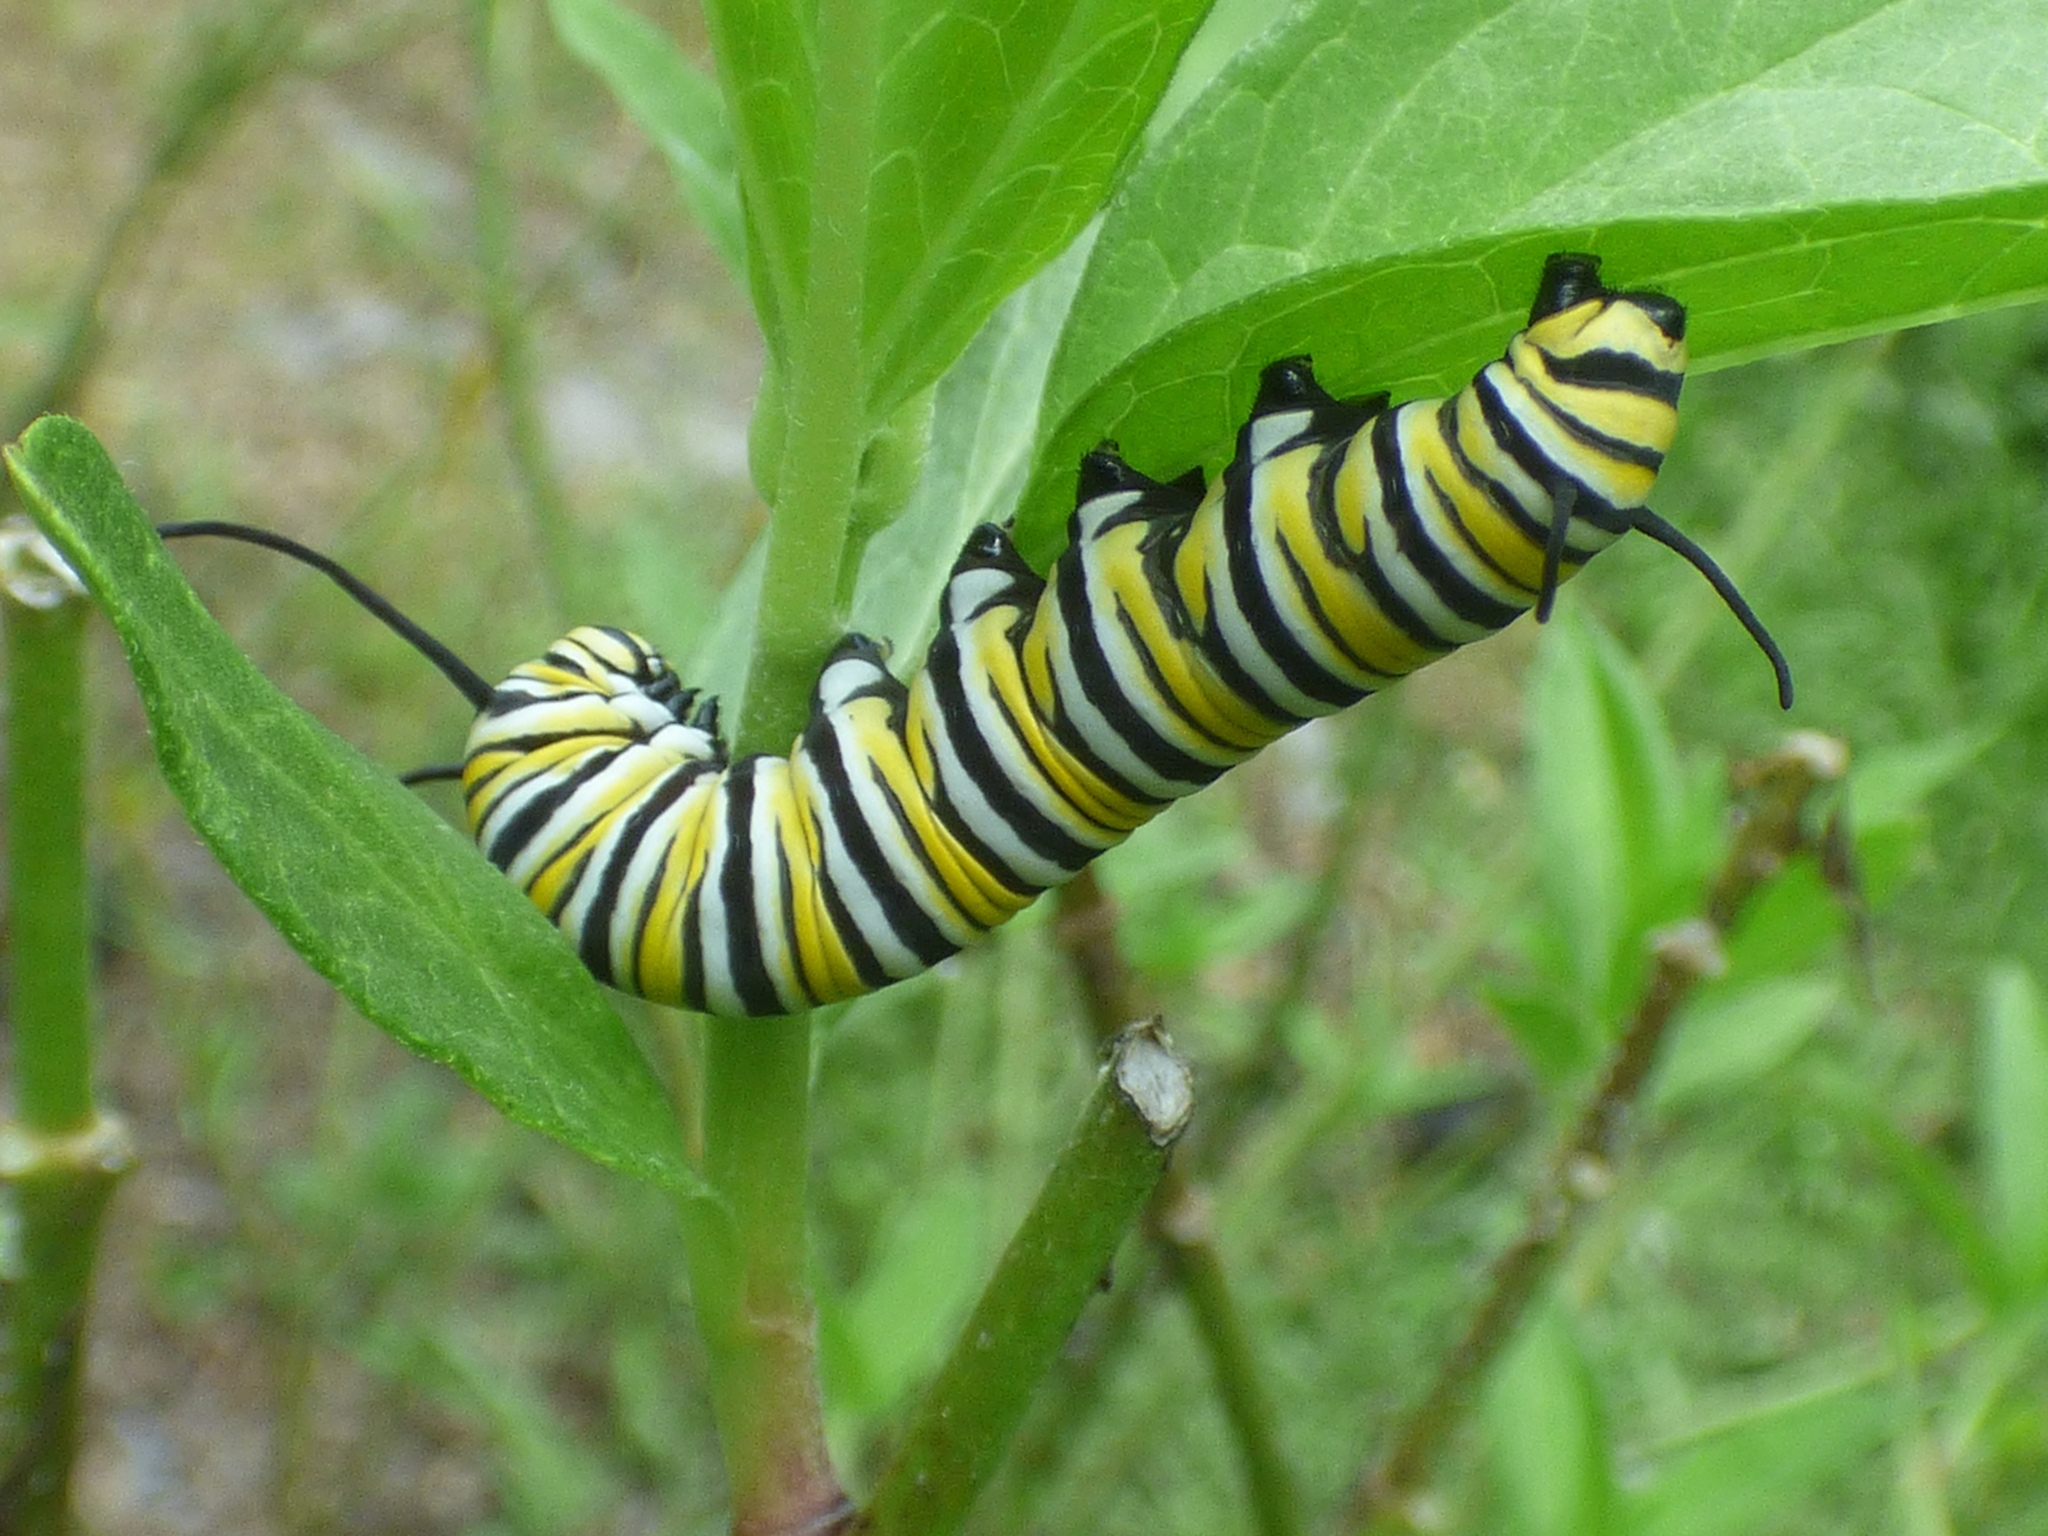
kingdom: Animalia
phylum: Arthropoda
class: Insecta
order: Lepidoptera
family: Nymphalidae
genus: Danaus
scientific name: Danaus plexippus
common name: Monarch
